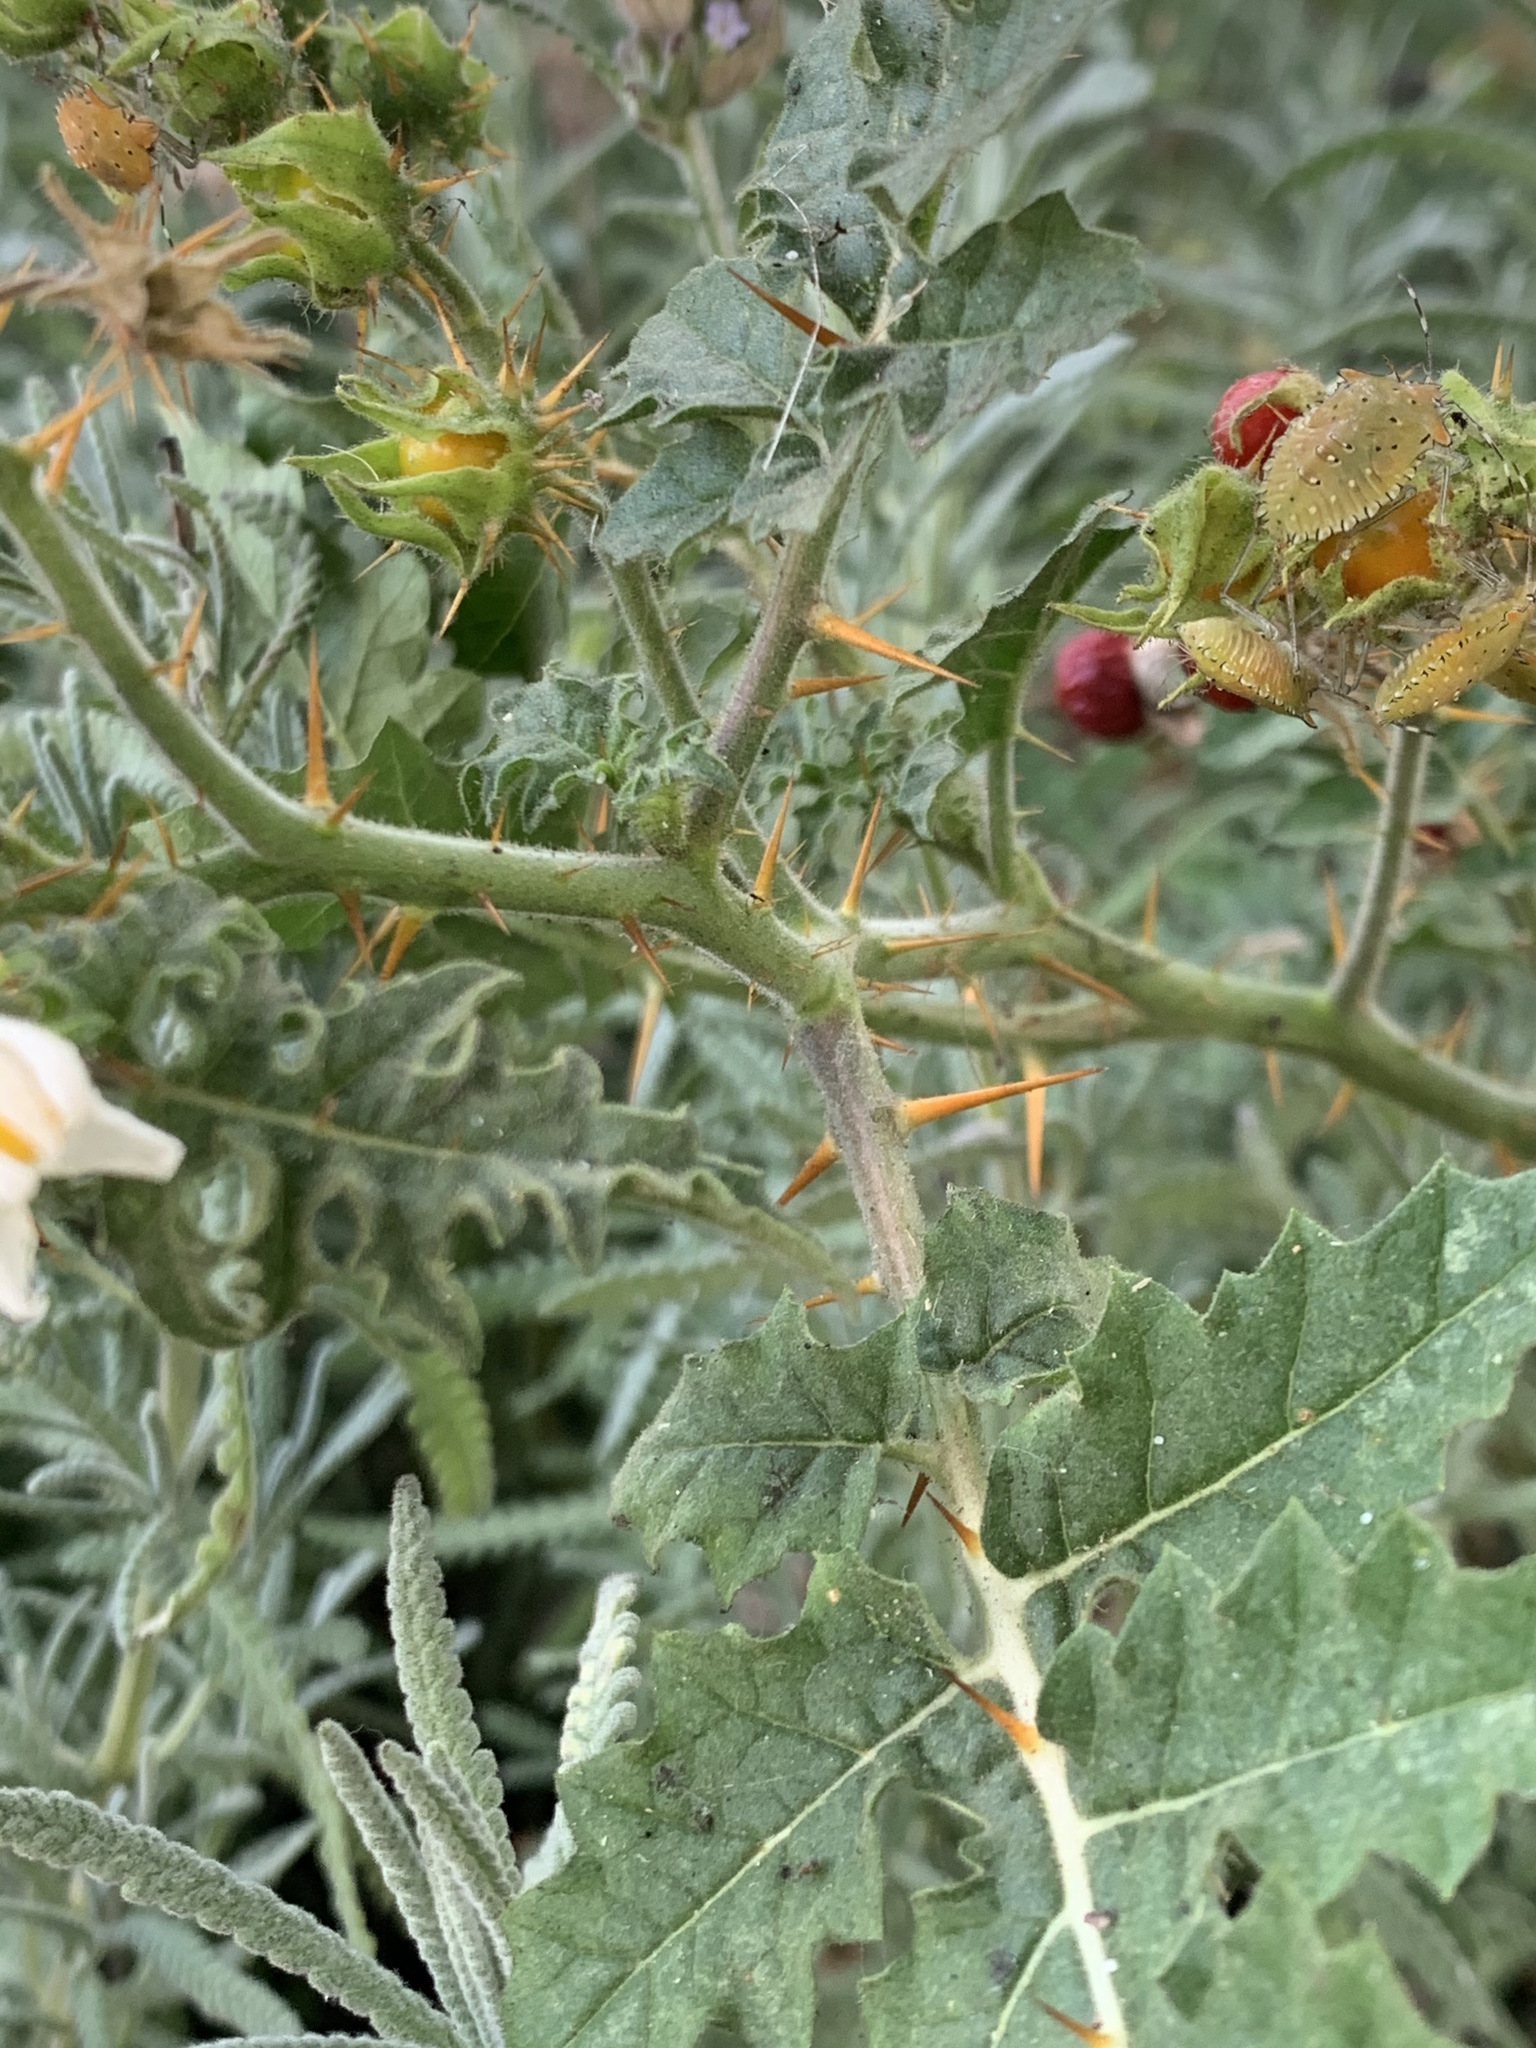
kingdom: Plantae
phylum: Tracheophyta
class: Magnoliopsida
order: Solanales
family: Solanaceae
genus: Solanum
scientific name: Solanum sisymbriifolium
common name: Red buffalo-bur
